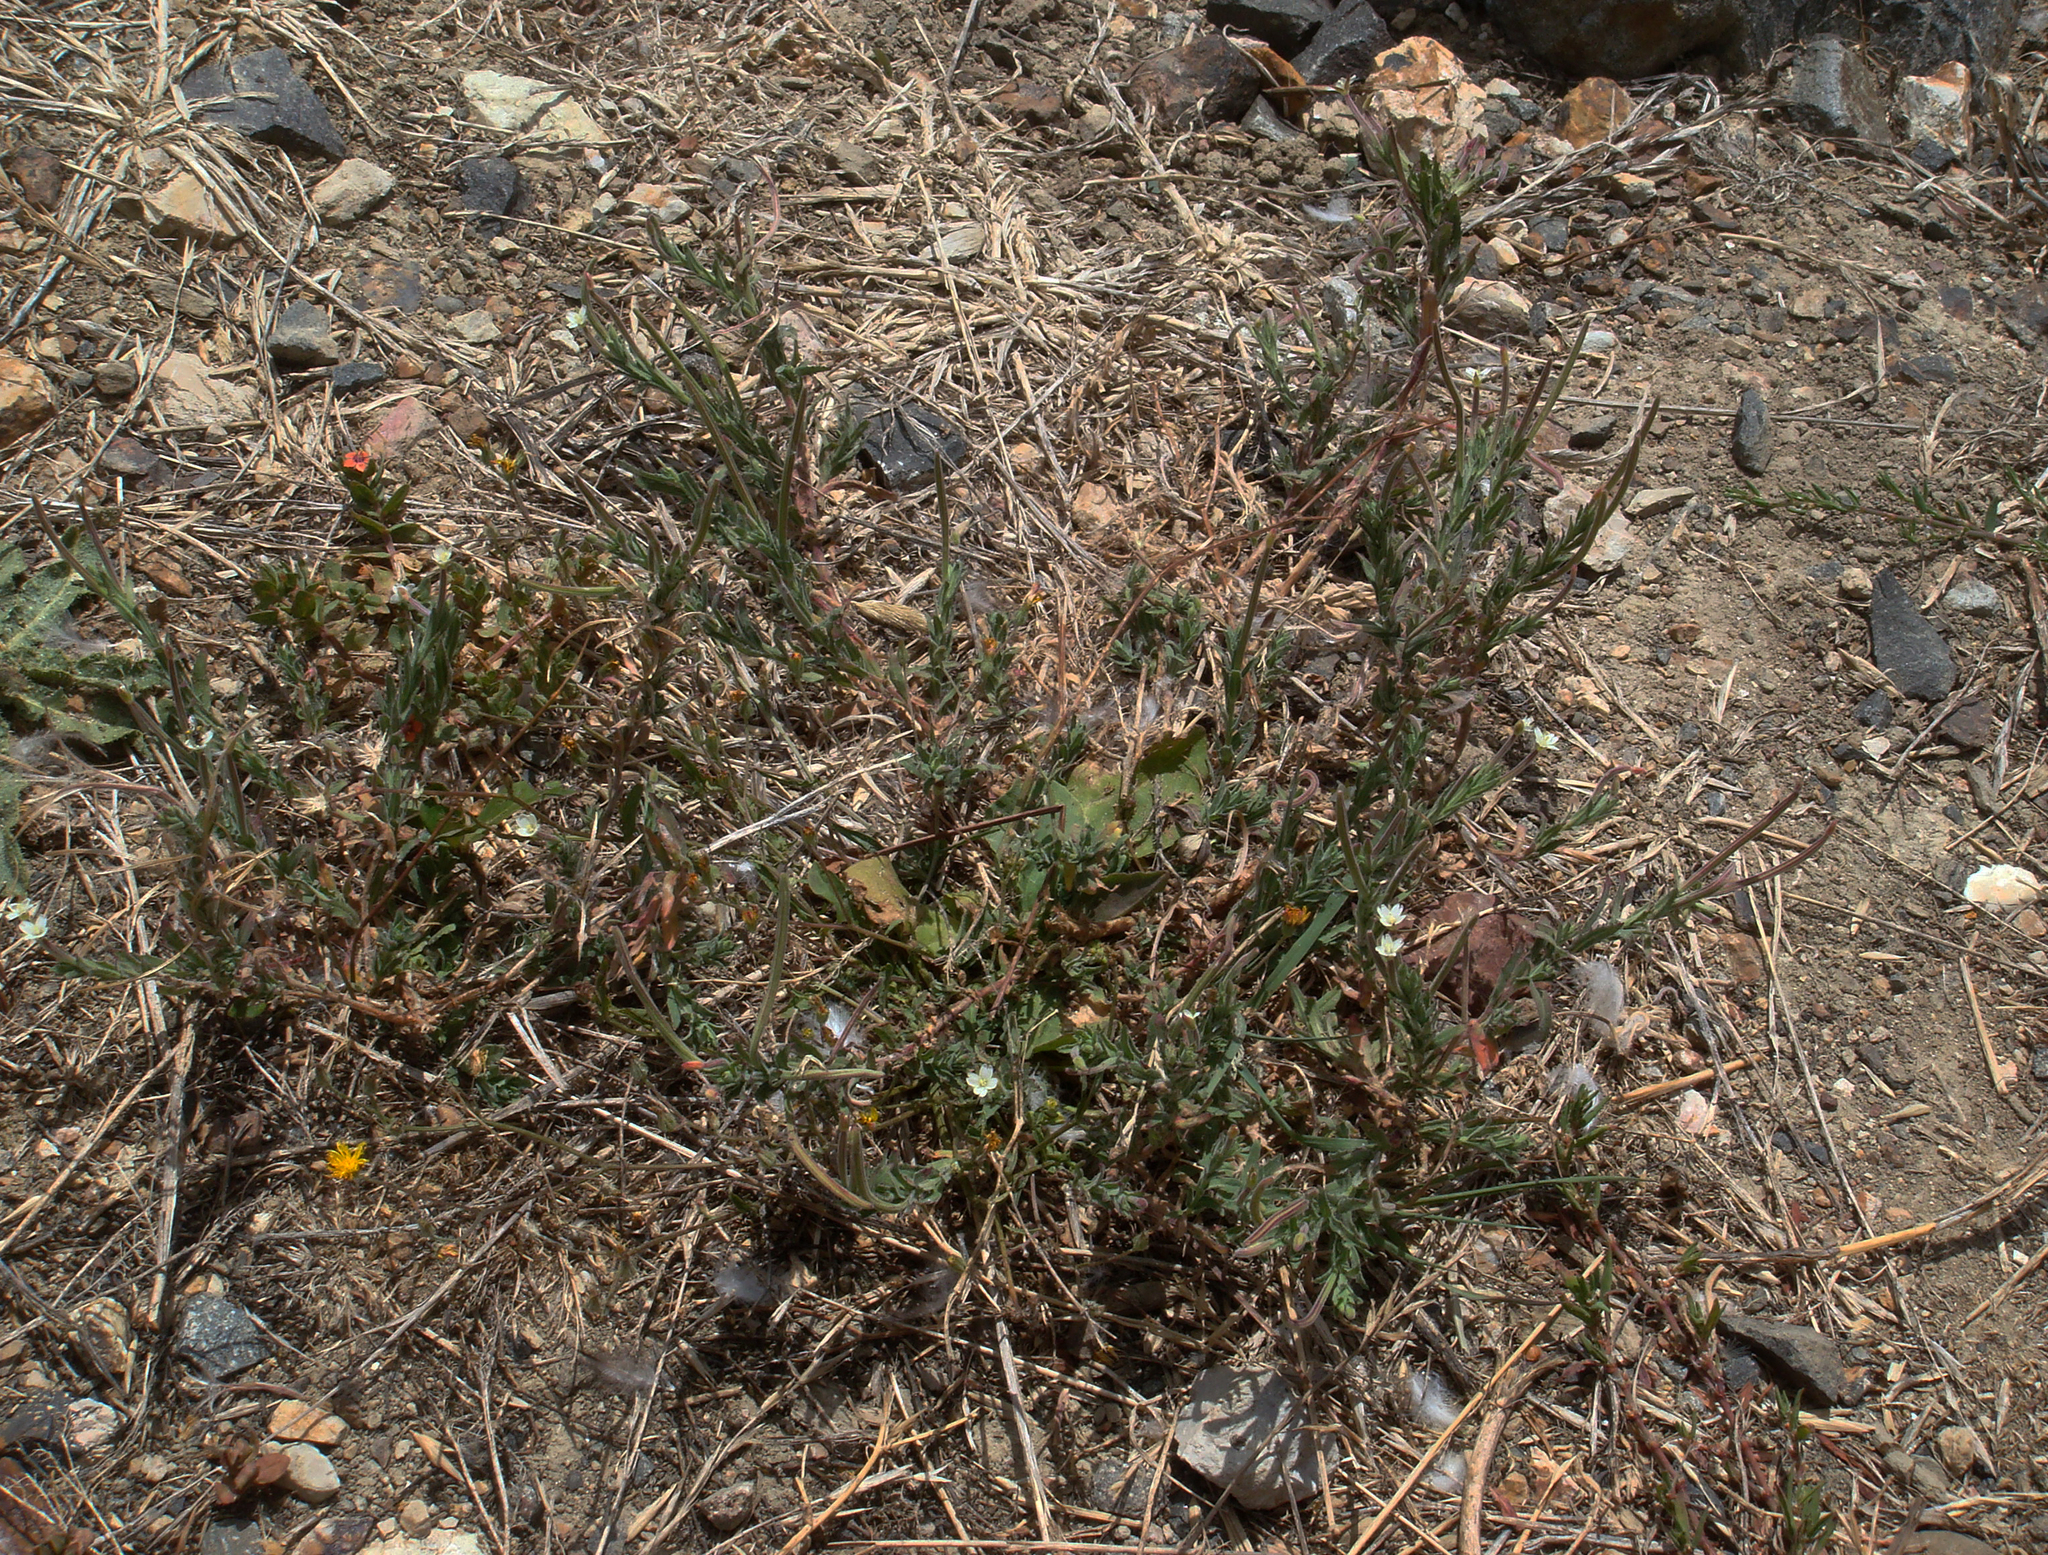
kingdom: Plantae
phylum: Tracheophyta
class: Magnoliopsida
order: Myrtales
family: Onagraceae
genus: Epilobium
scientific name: Epilobium hirtigerum
